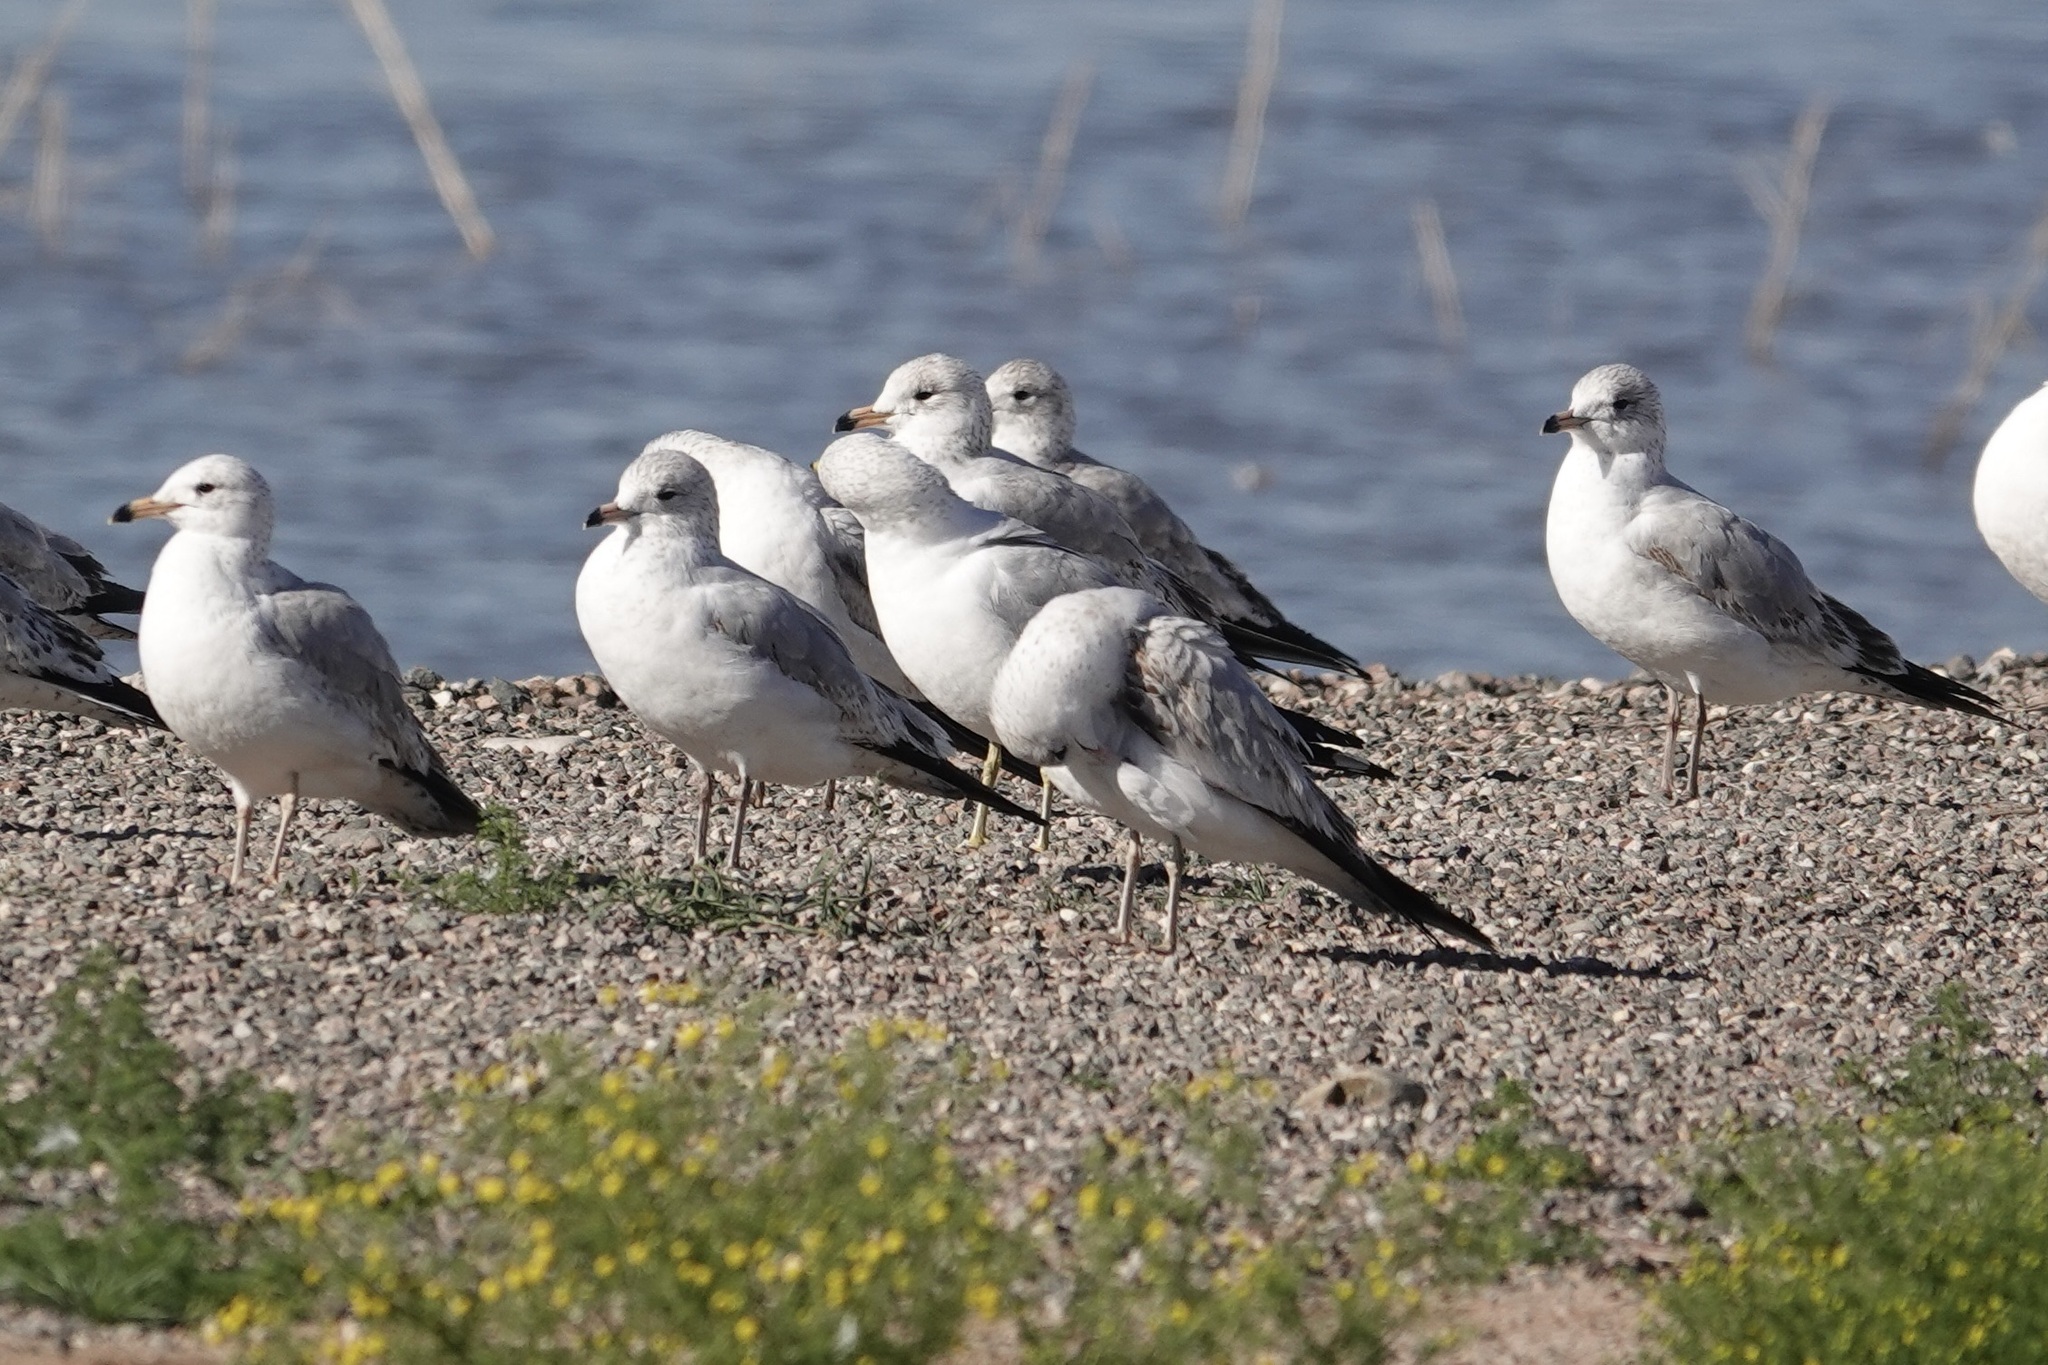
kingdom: Animalia
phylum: Chordata
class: Aves
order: Charadriiformes
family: Laridae
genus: Larus
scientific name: Larus delawarensis
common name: Ring-billed gull
